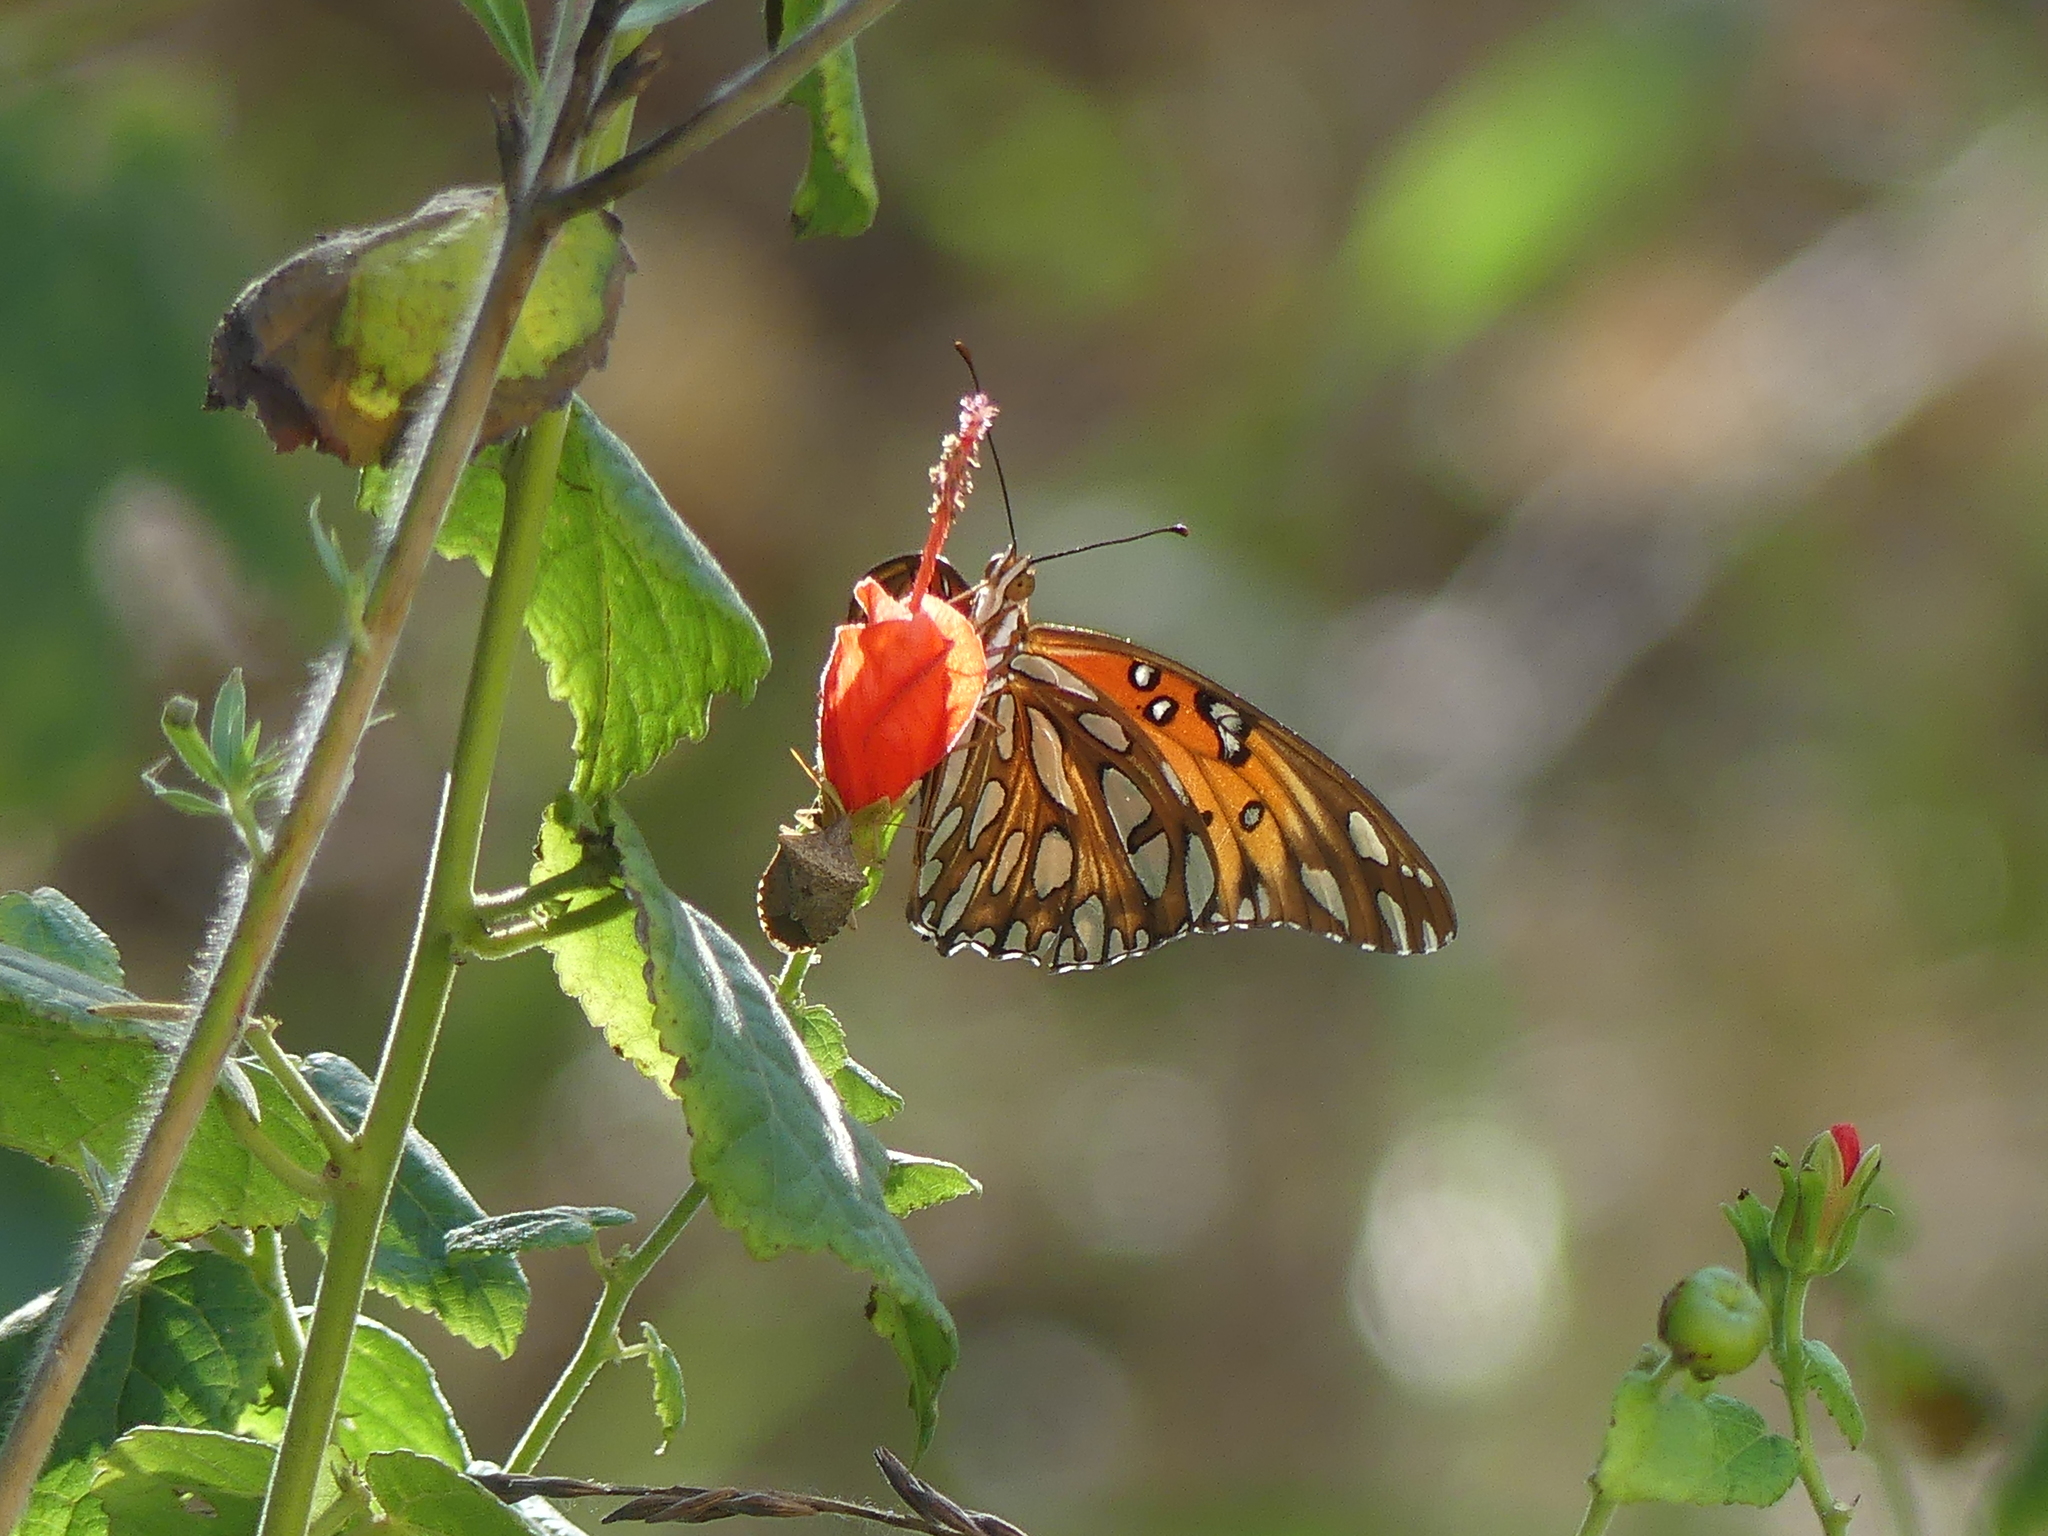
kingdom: Animalia
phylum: Arthropoda
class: Insecta
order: Lepidoptera
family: Nymphalidae
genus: Dione
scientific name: Dione vanillae
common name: Gulf fritillary
